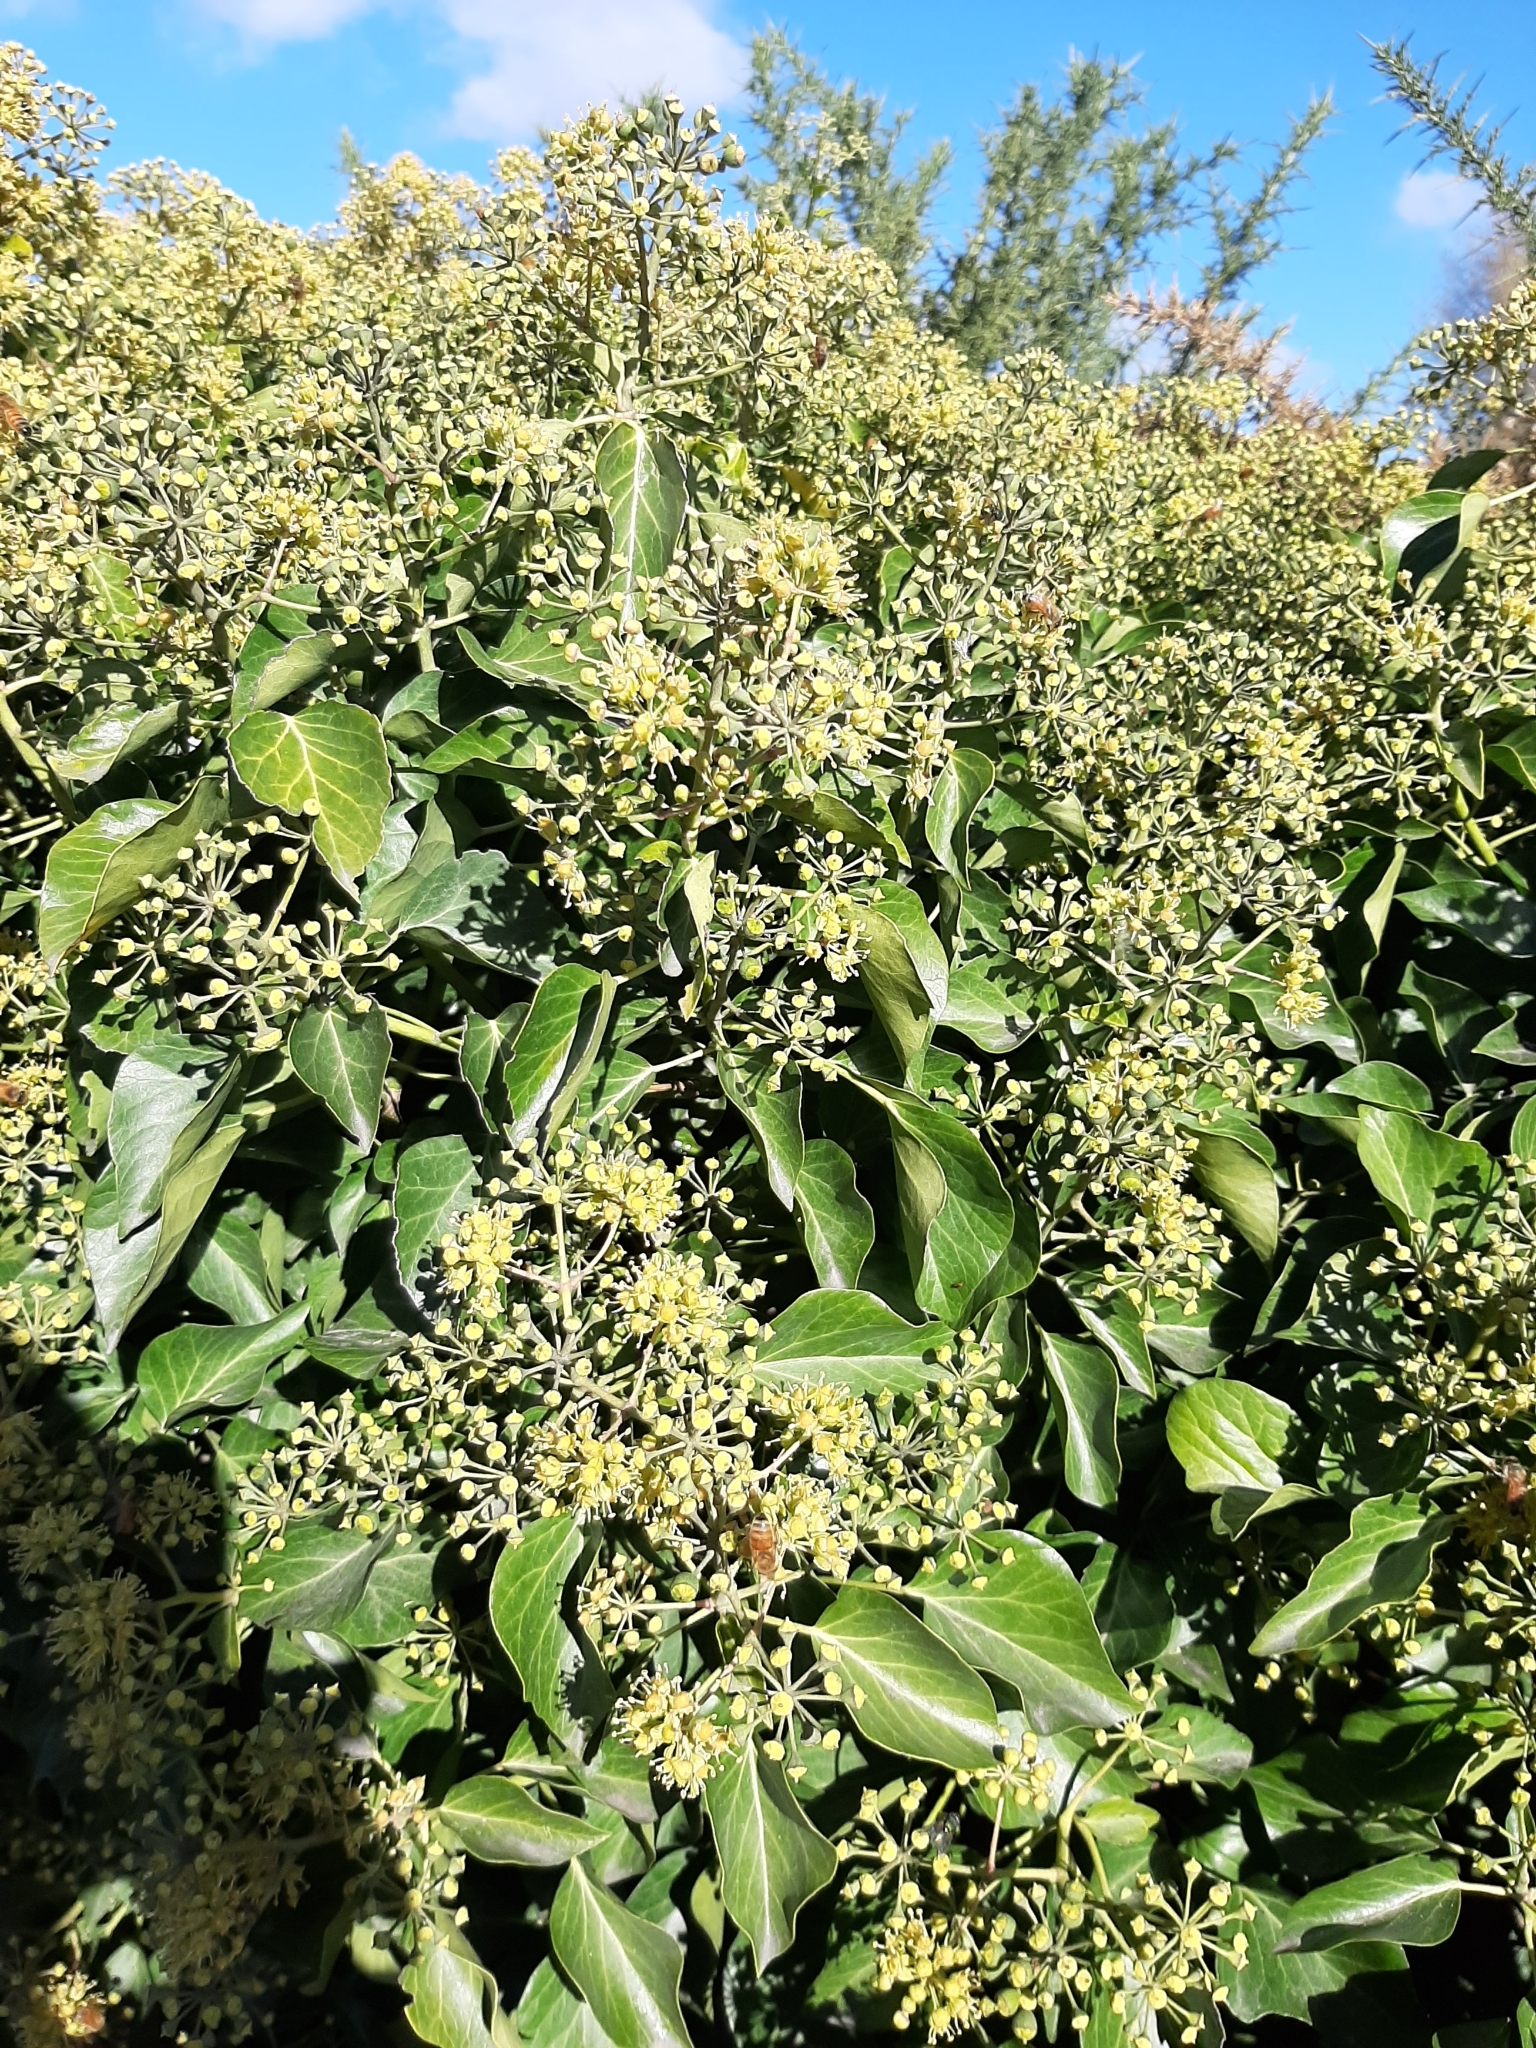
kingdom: Animalia
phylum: Arthropoda
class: Insecta
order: Hymenoptera
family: Apidae
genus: Apis
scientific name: Apis mellifera
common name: Honey bee
